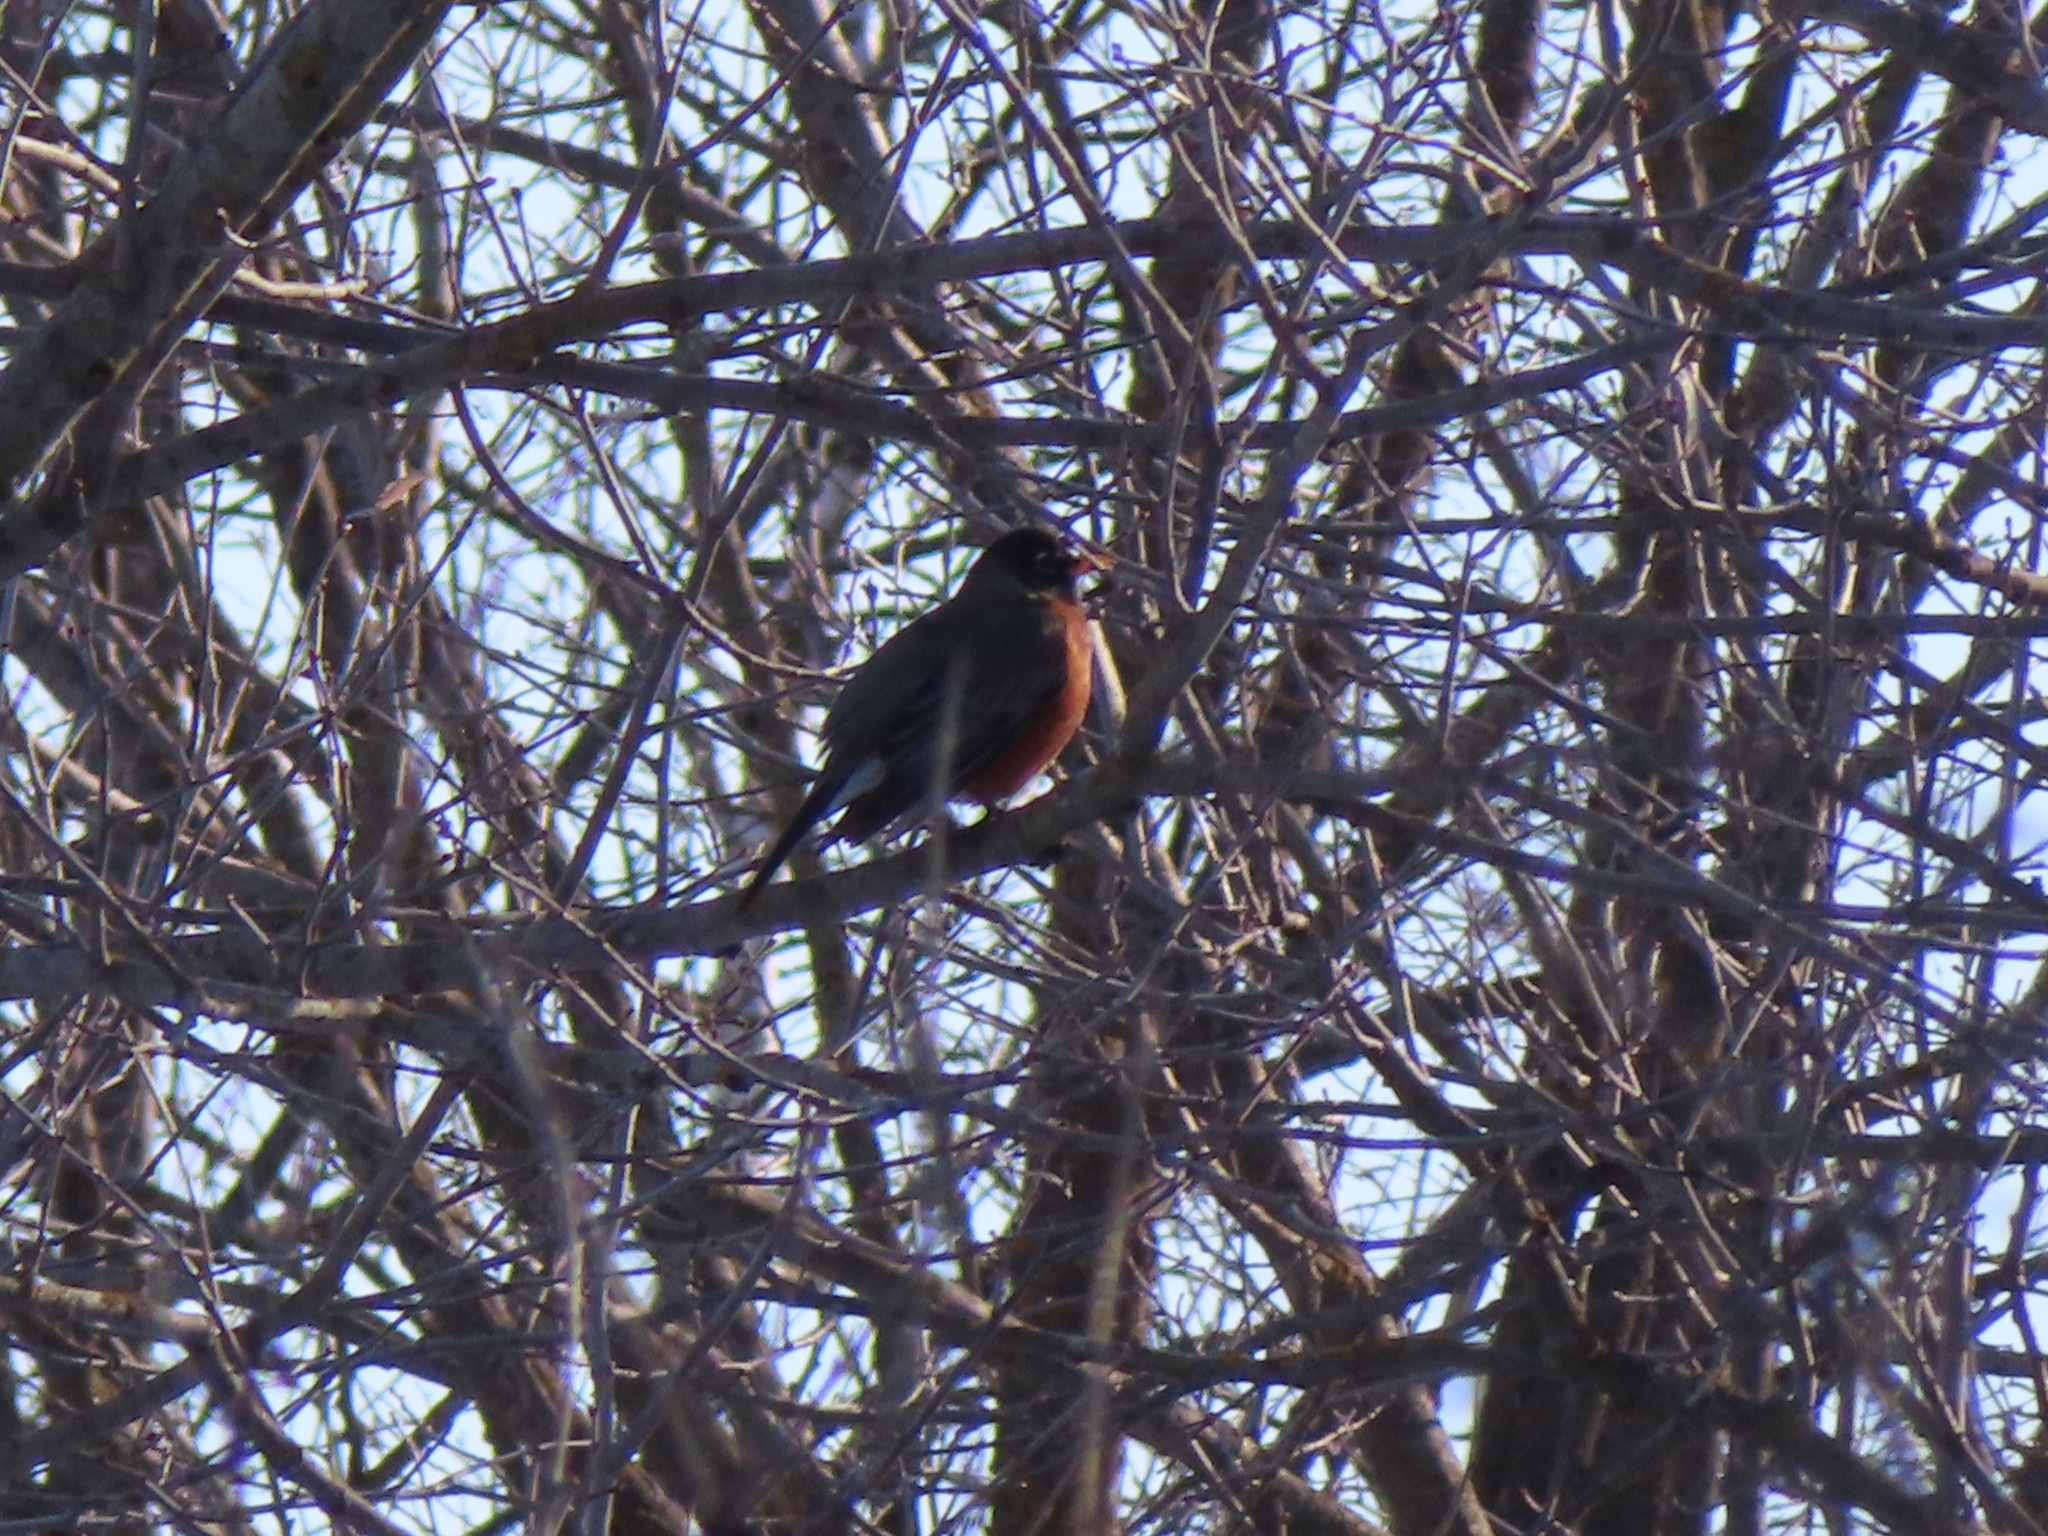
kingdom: Animalia
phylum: Chordata
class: Aves
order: Passeriformes
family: Turdidae
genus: Turdus
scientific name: Turdus migratorius
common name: American robin
